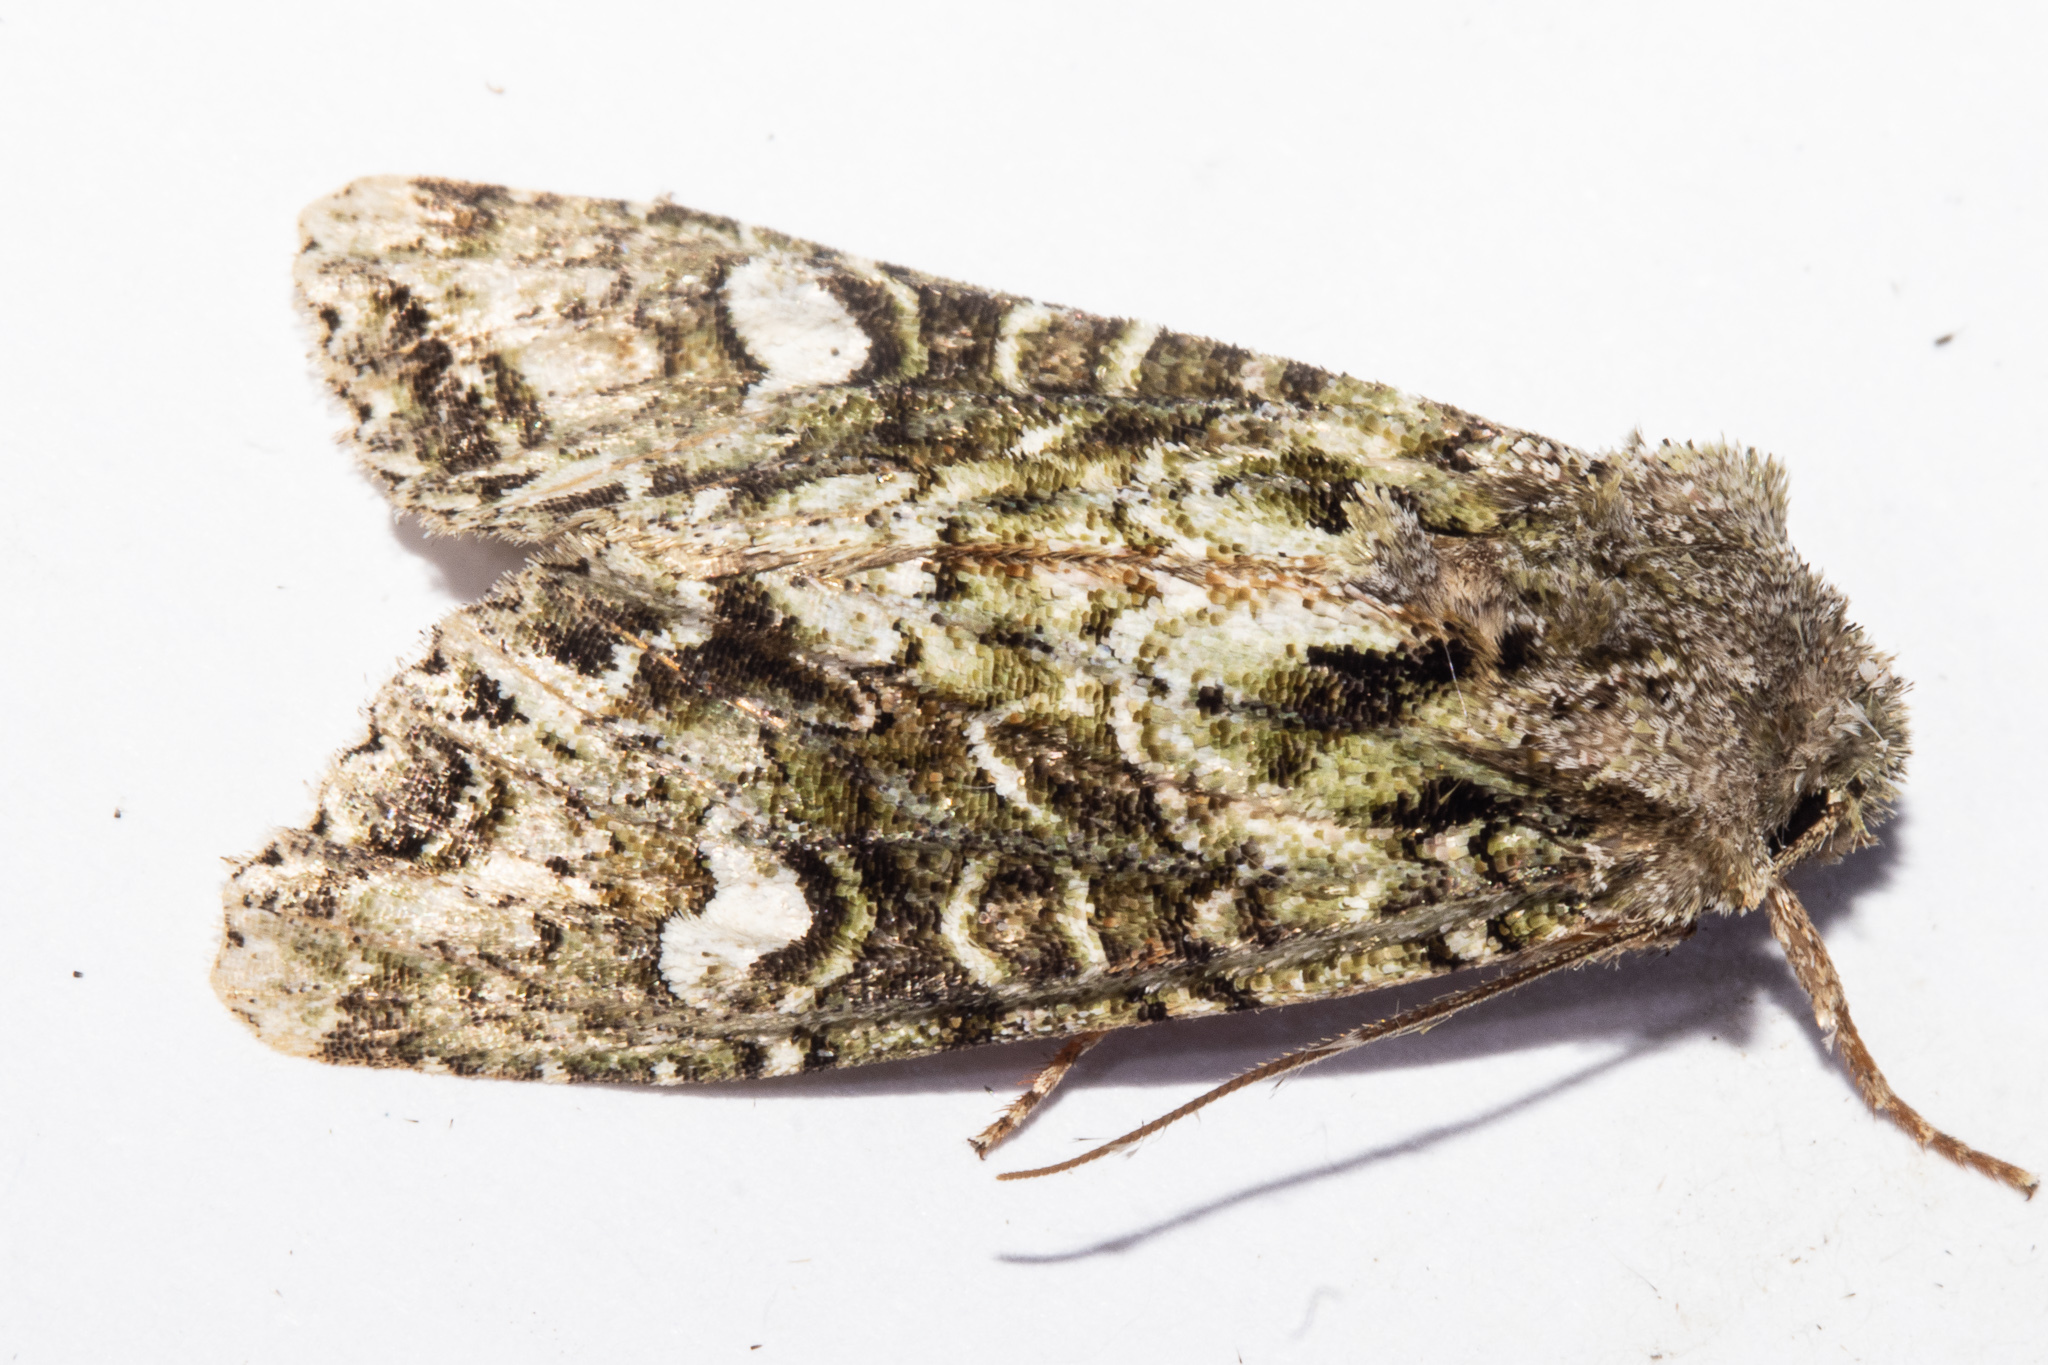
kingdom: Animalia
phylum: Arthropoda
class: Insecta
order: Lepidoptera
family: Noctuidae
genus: Ichneutica
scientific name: Ichneutica
